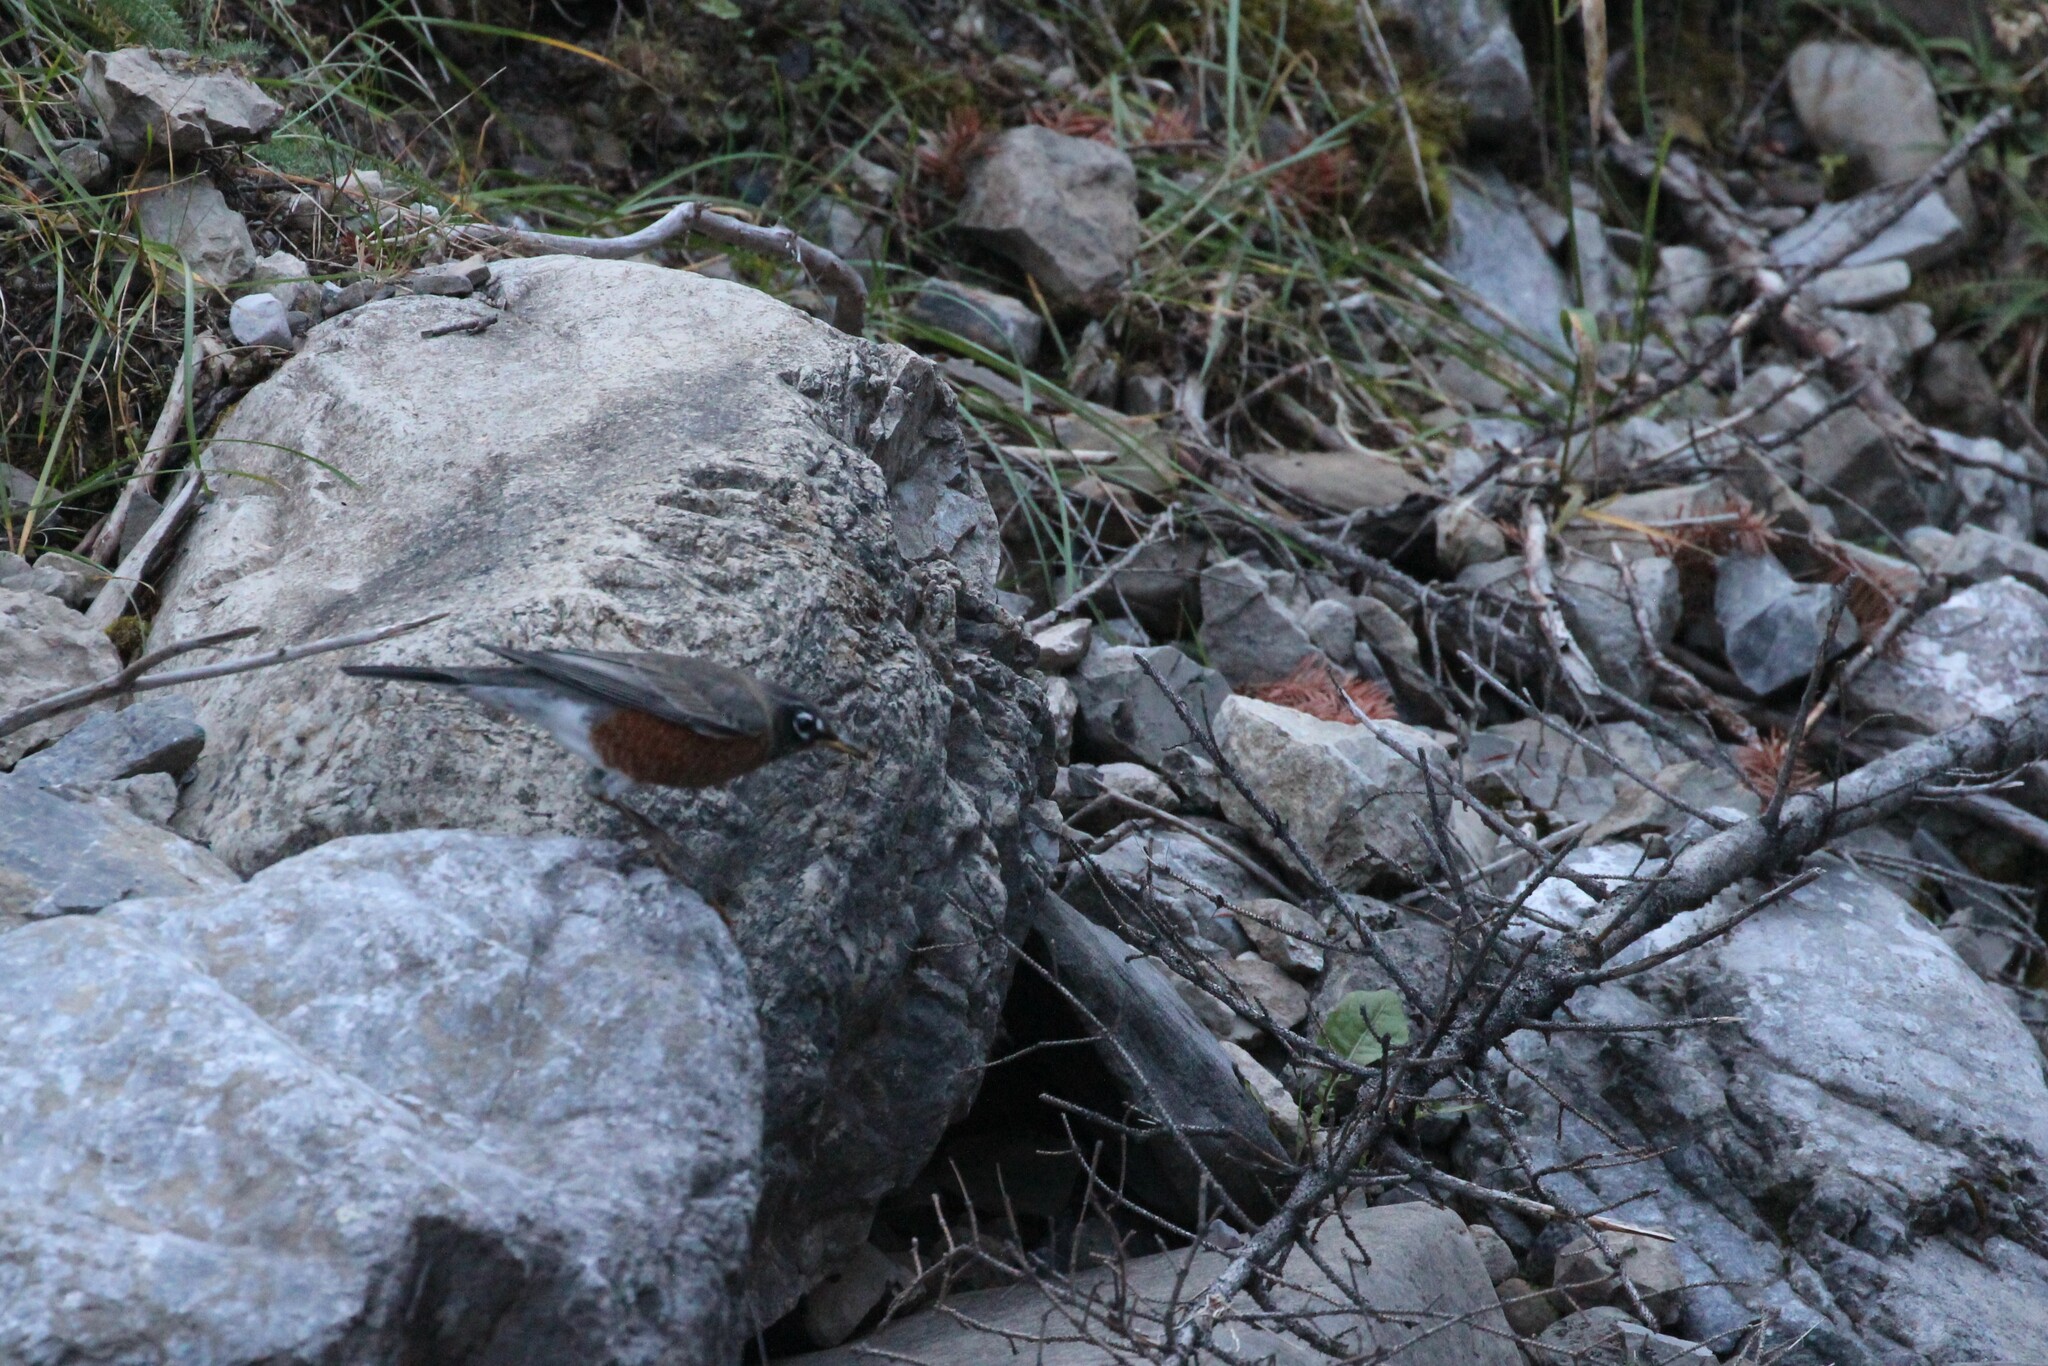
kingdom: Animalia
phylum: Chordata
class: Aves
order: Passeriformes
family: Turdidae
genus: Turdus
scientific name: Turdus migratorius
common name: American robin
